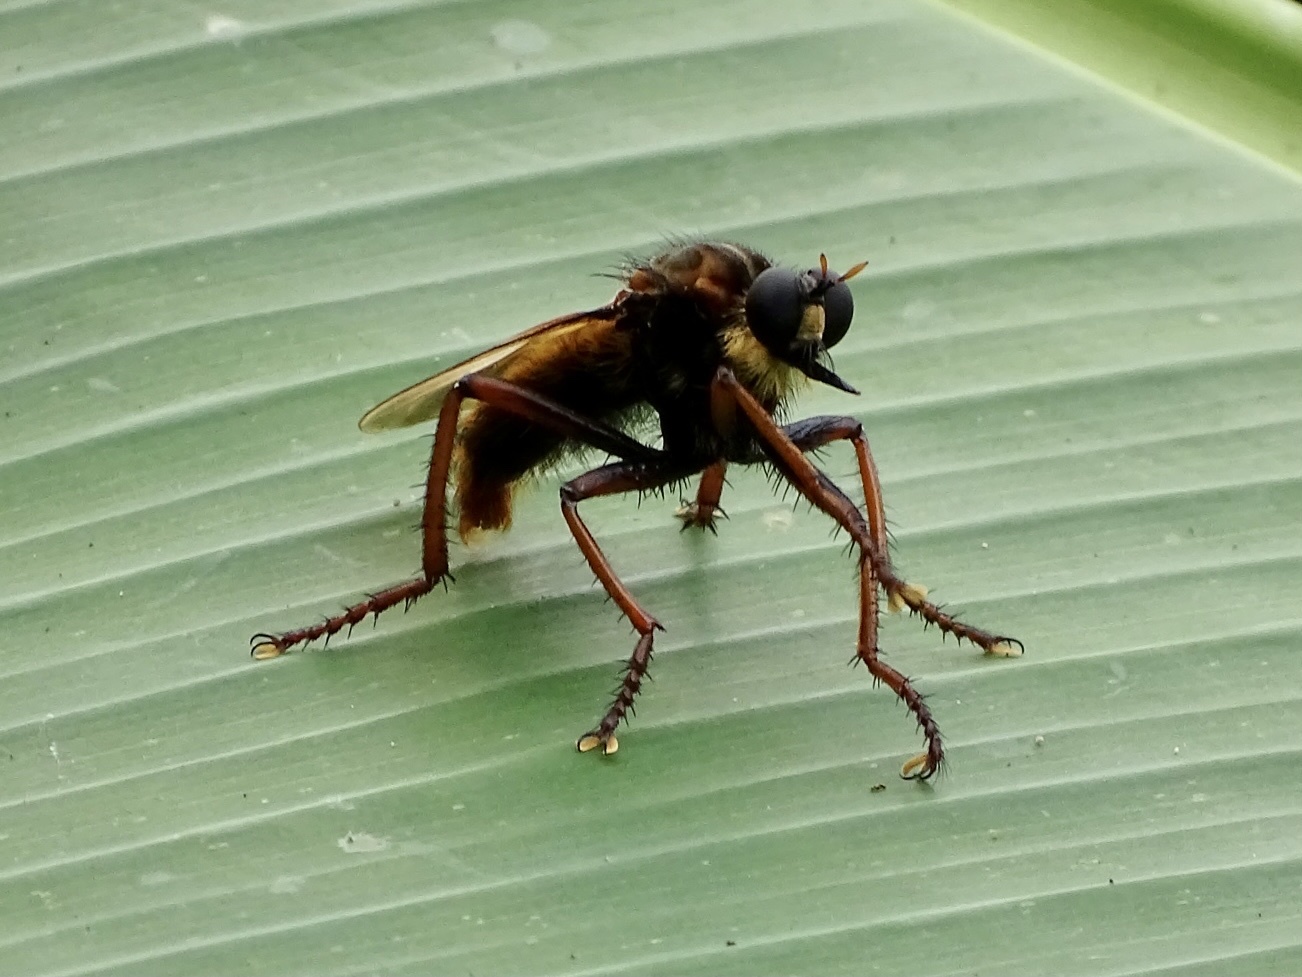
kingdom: Animalia
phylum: Arthropoda
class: Insecta
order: Diptera
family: Asilidae
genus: Microstylum
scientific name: Microstylum dux
